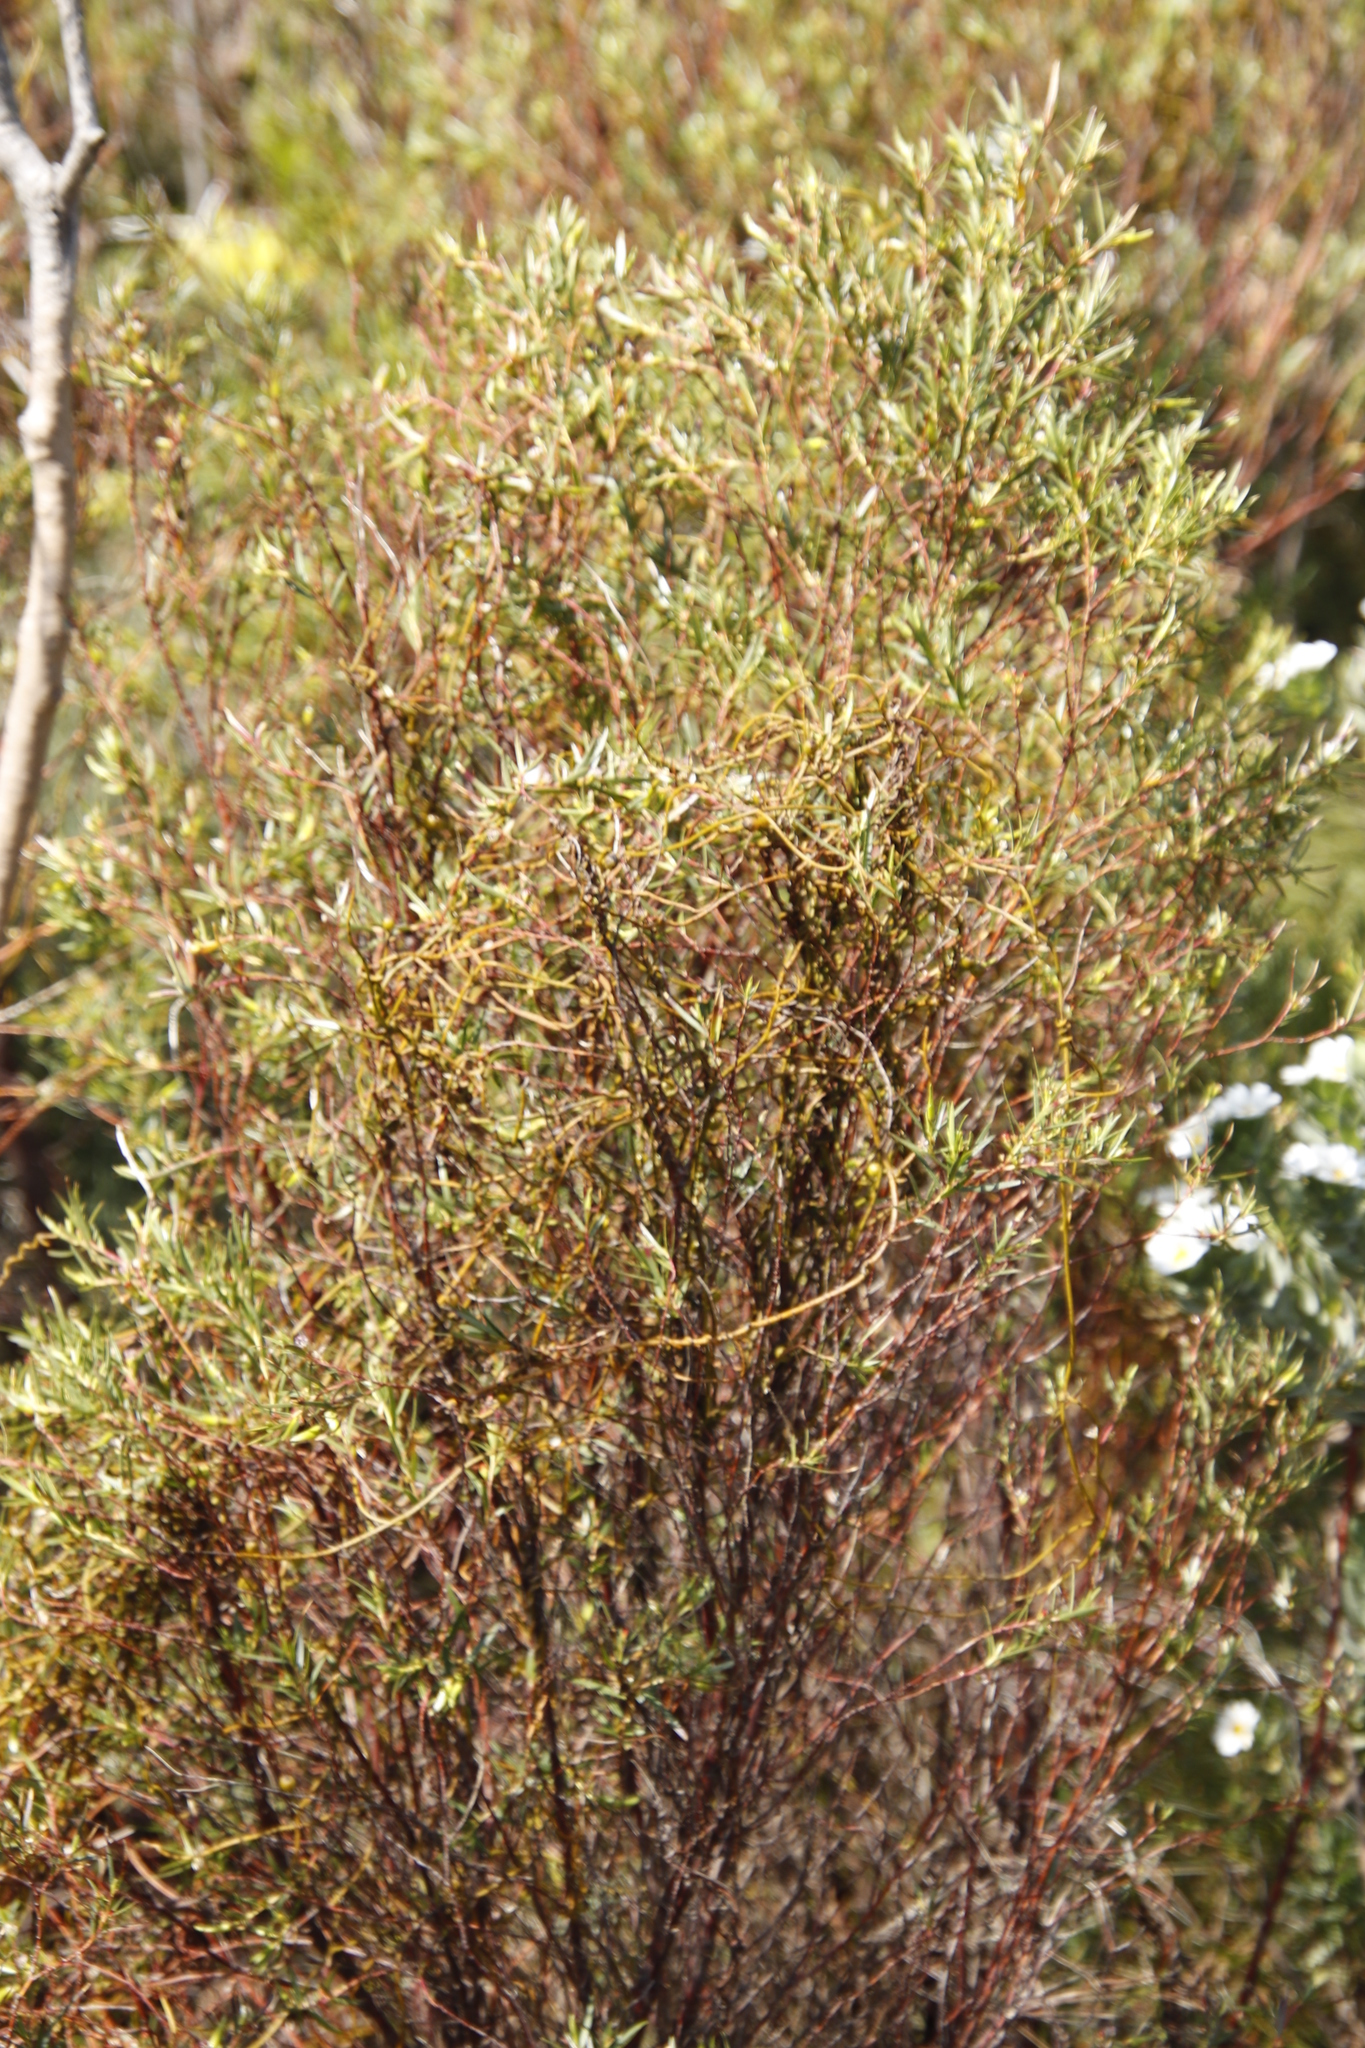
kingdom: Plantae
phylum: Tracheophyta
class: Magnoliopsida
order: Laurales
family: Lauraceae
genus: Cassytha
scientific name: Cassytha ciliolata
